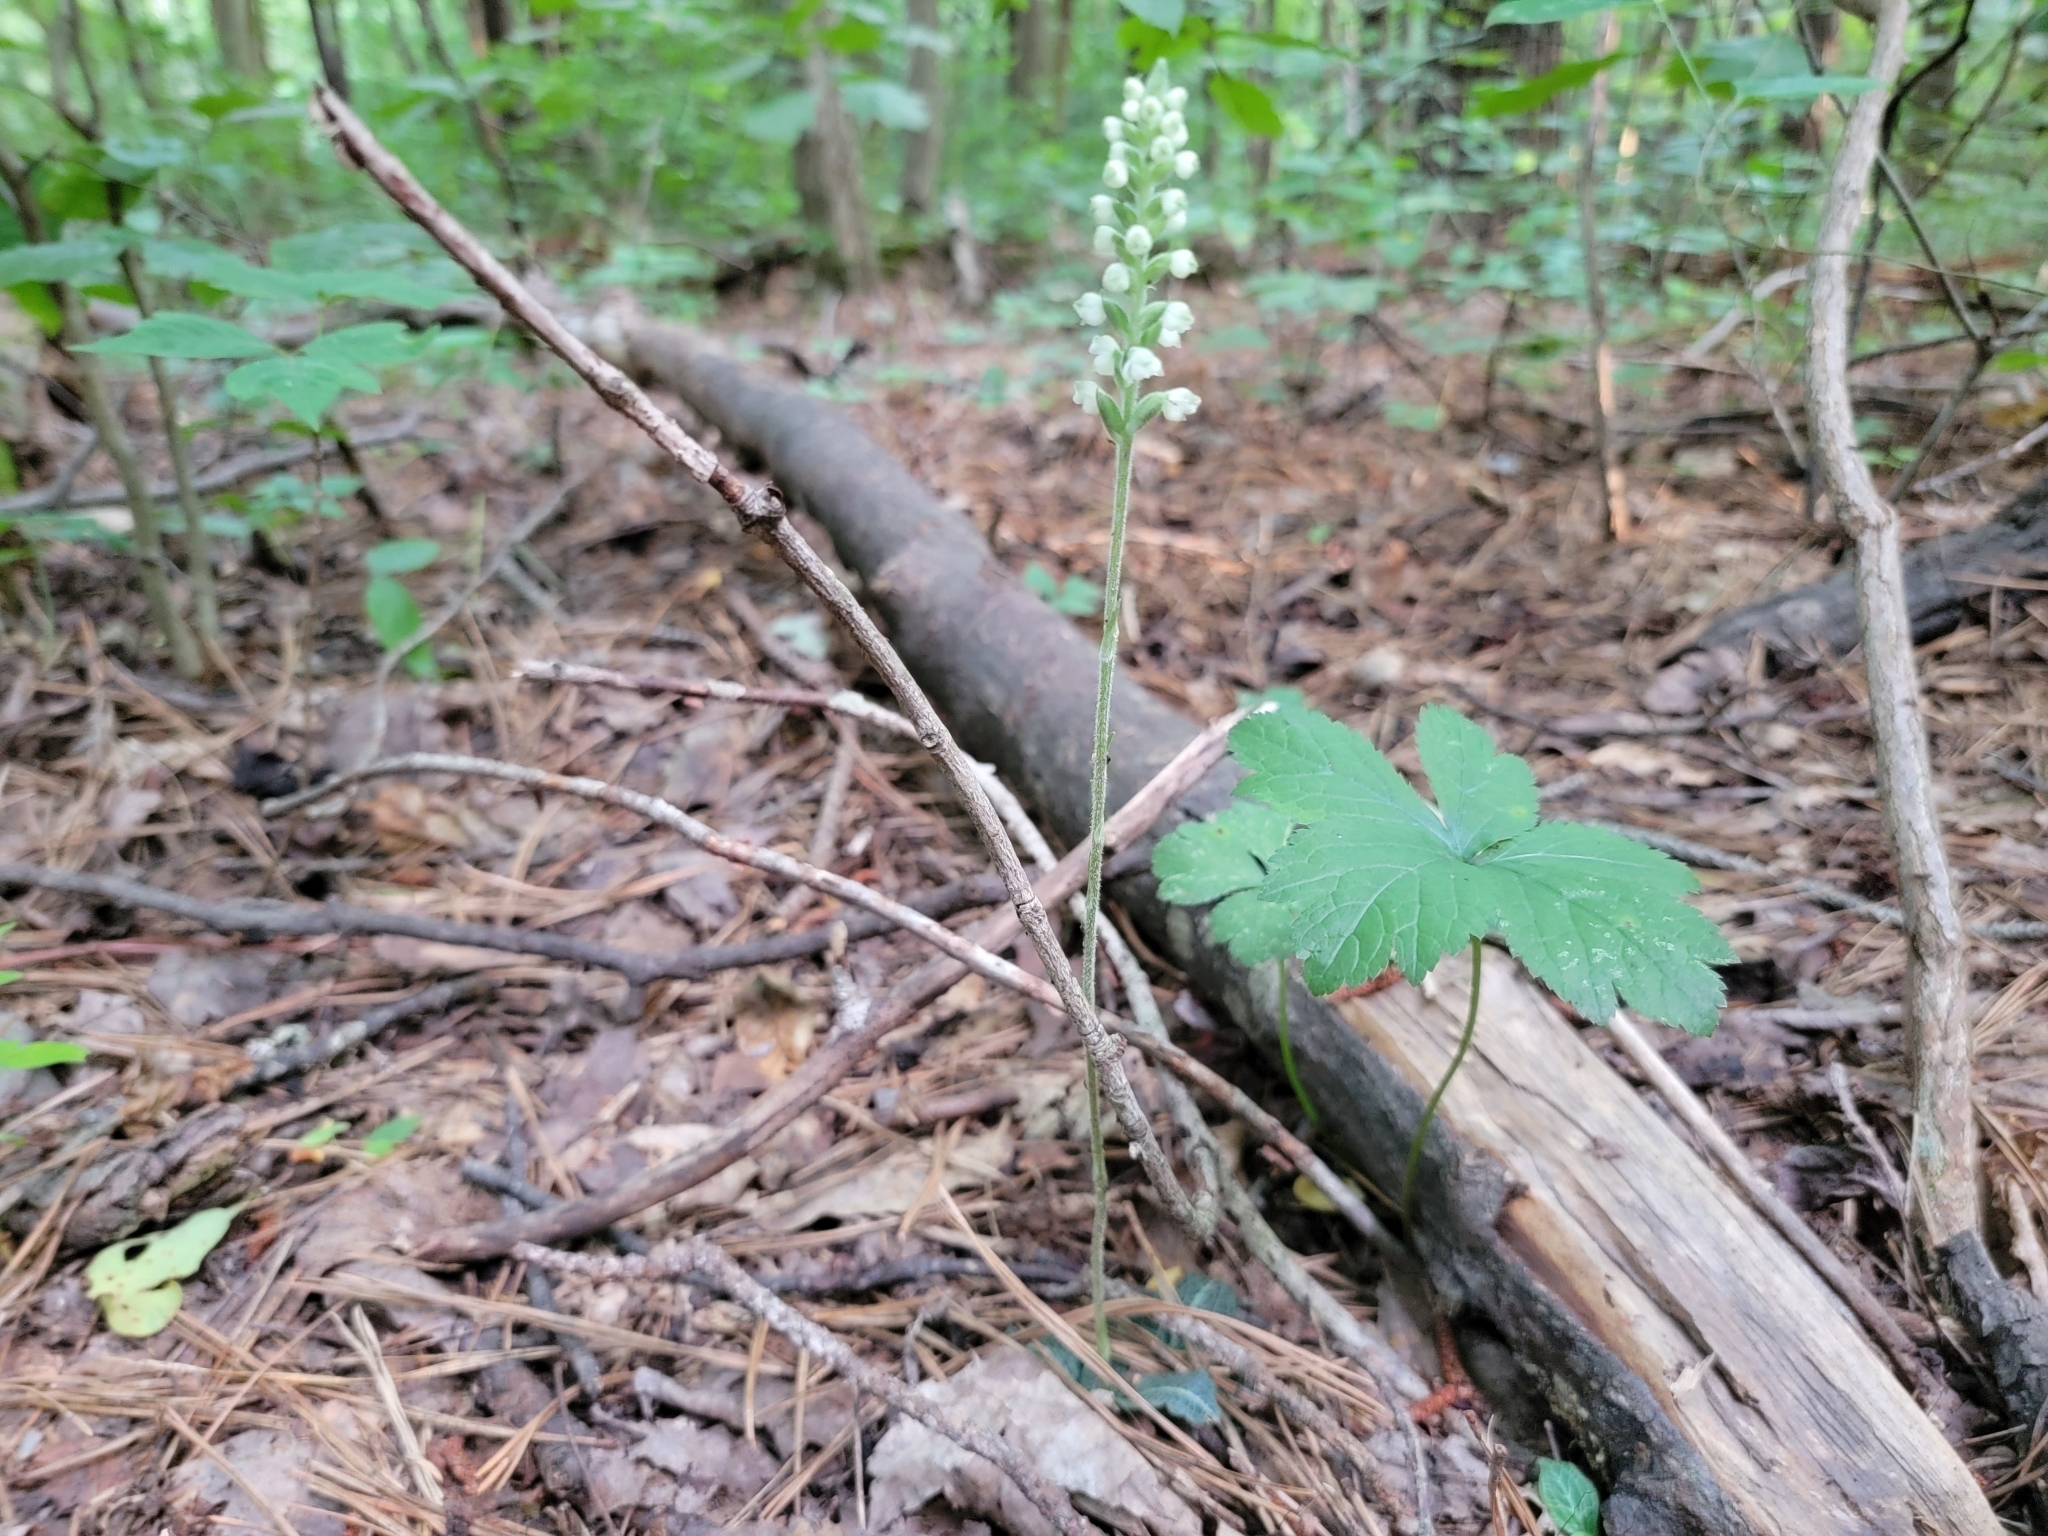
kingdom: Plantae
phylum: Tracheophyta
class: Liliopsida
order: Asparagales
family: Orchidaceae
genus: Goodyera
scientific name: Goodyera pubescens
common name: Downy rattlesnake-plantain
